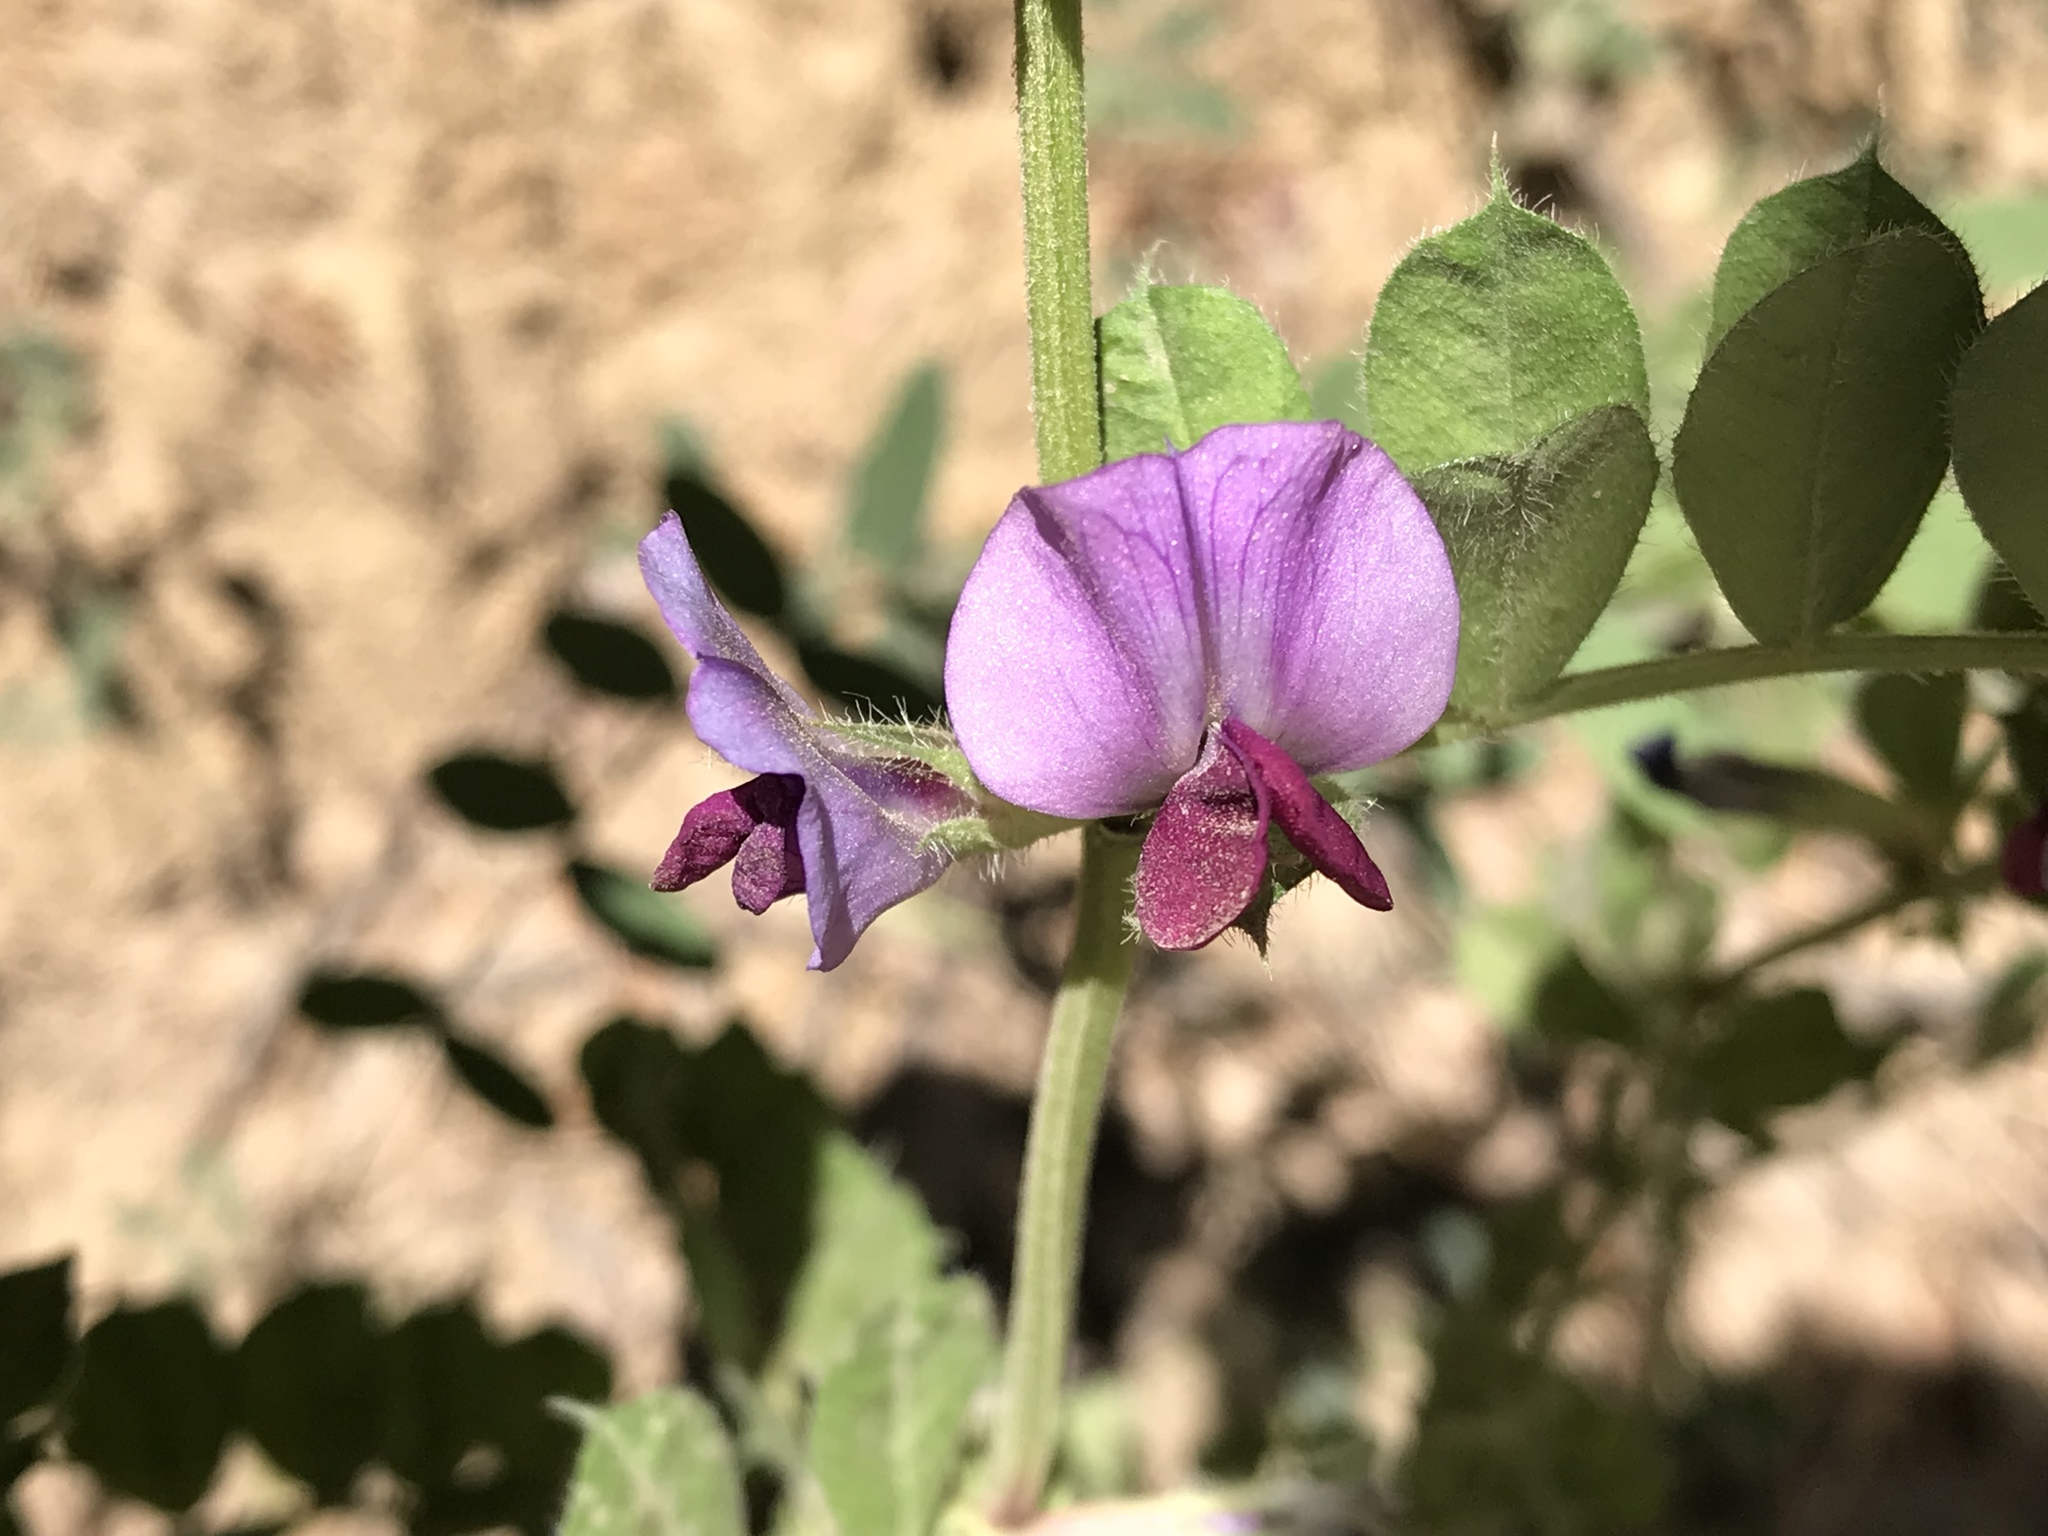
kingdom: Plantae
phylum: Tracheophyta
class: Magnoliopsida
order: Fabales
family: Fabaceae
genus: Vicia
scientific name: Vicia sativa
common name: Garden vetch
